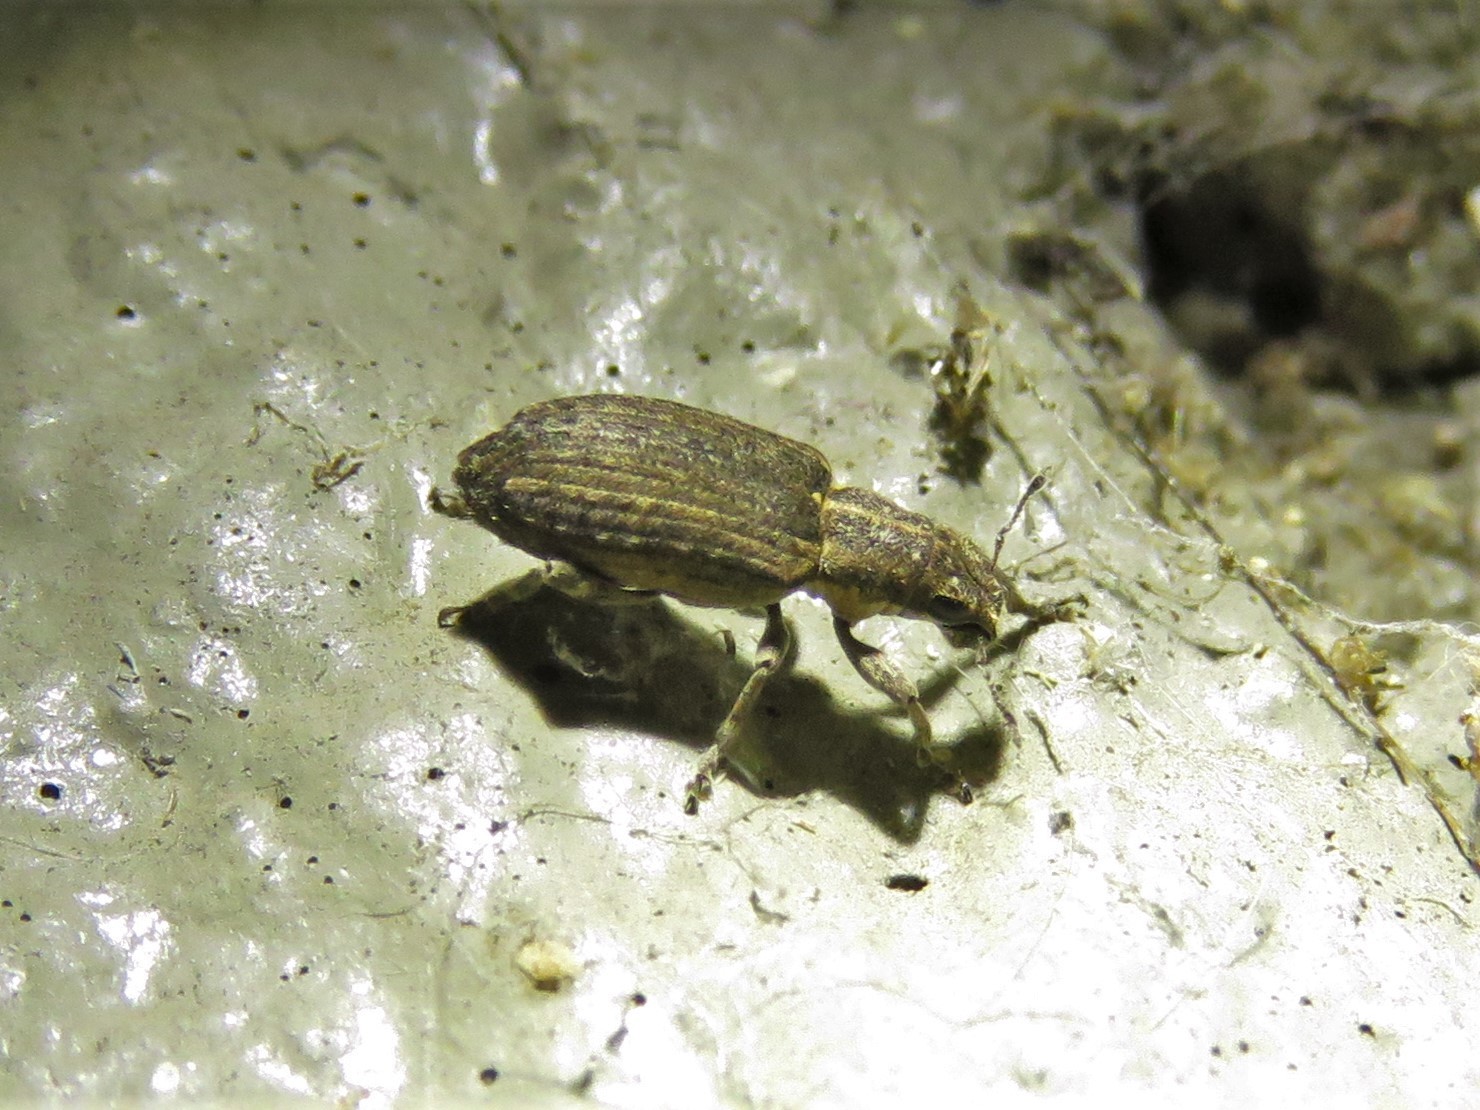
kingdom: Animalia
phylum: Arthropoda
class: Insecta
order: Coleoptera
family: Curculionidae
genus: Sitones
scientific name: Sitones californius
